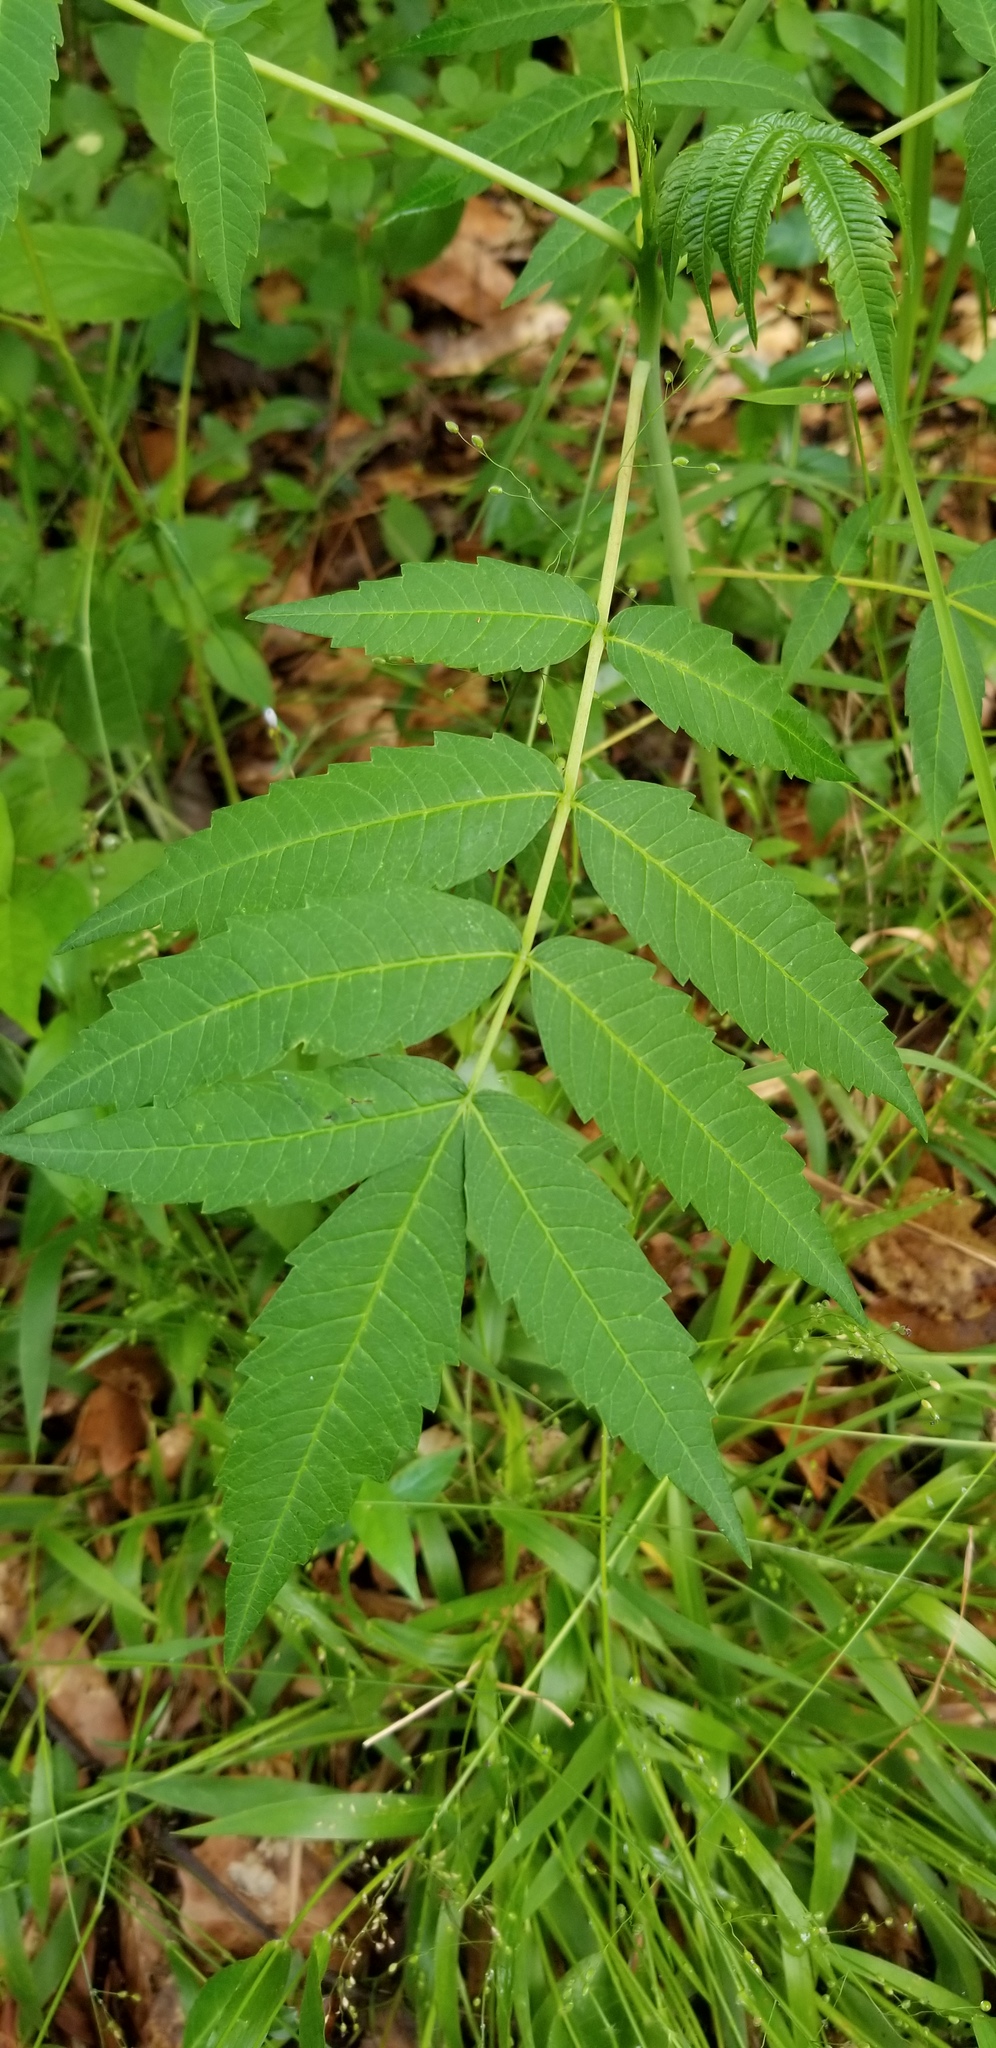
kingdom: Plantae
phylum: Tracheophyta
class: Magnoliopsida
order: Sapindales
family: Anacardiaceae
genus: Rhus
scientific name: Rhus glabra
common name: Scarlet sumac
